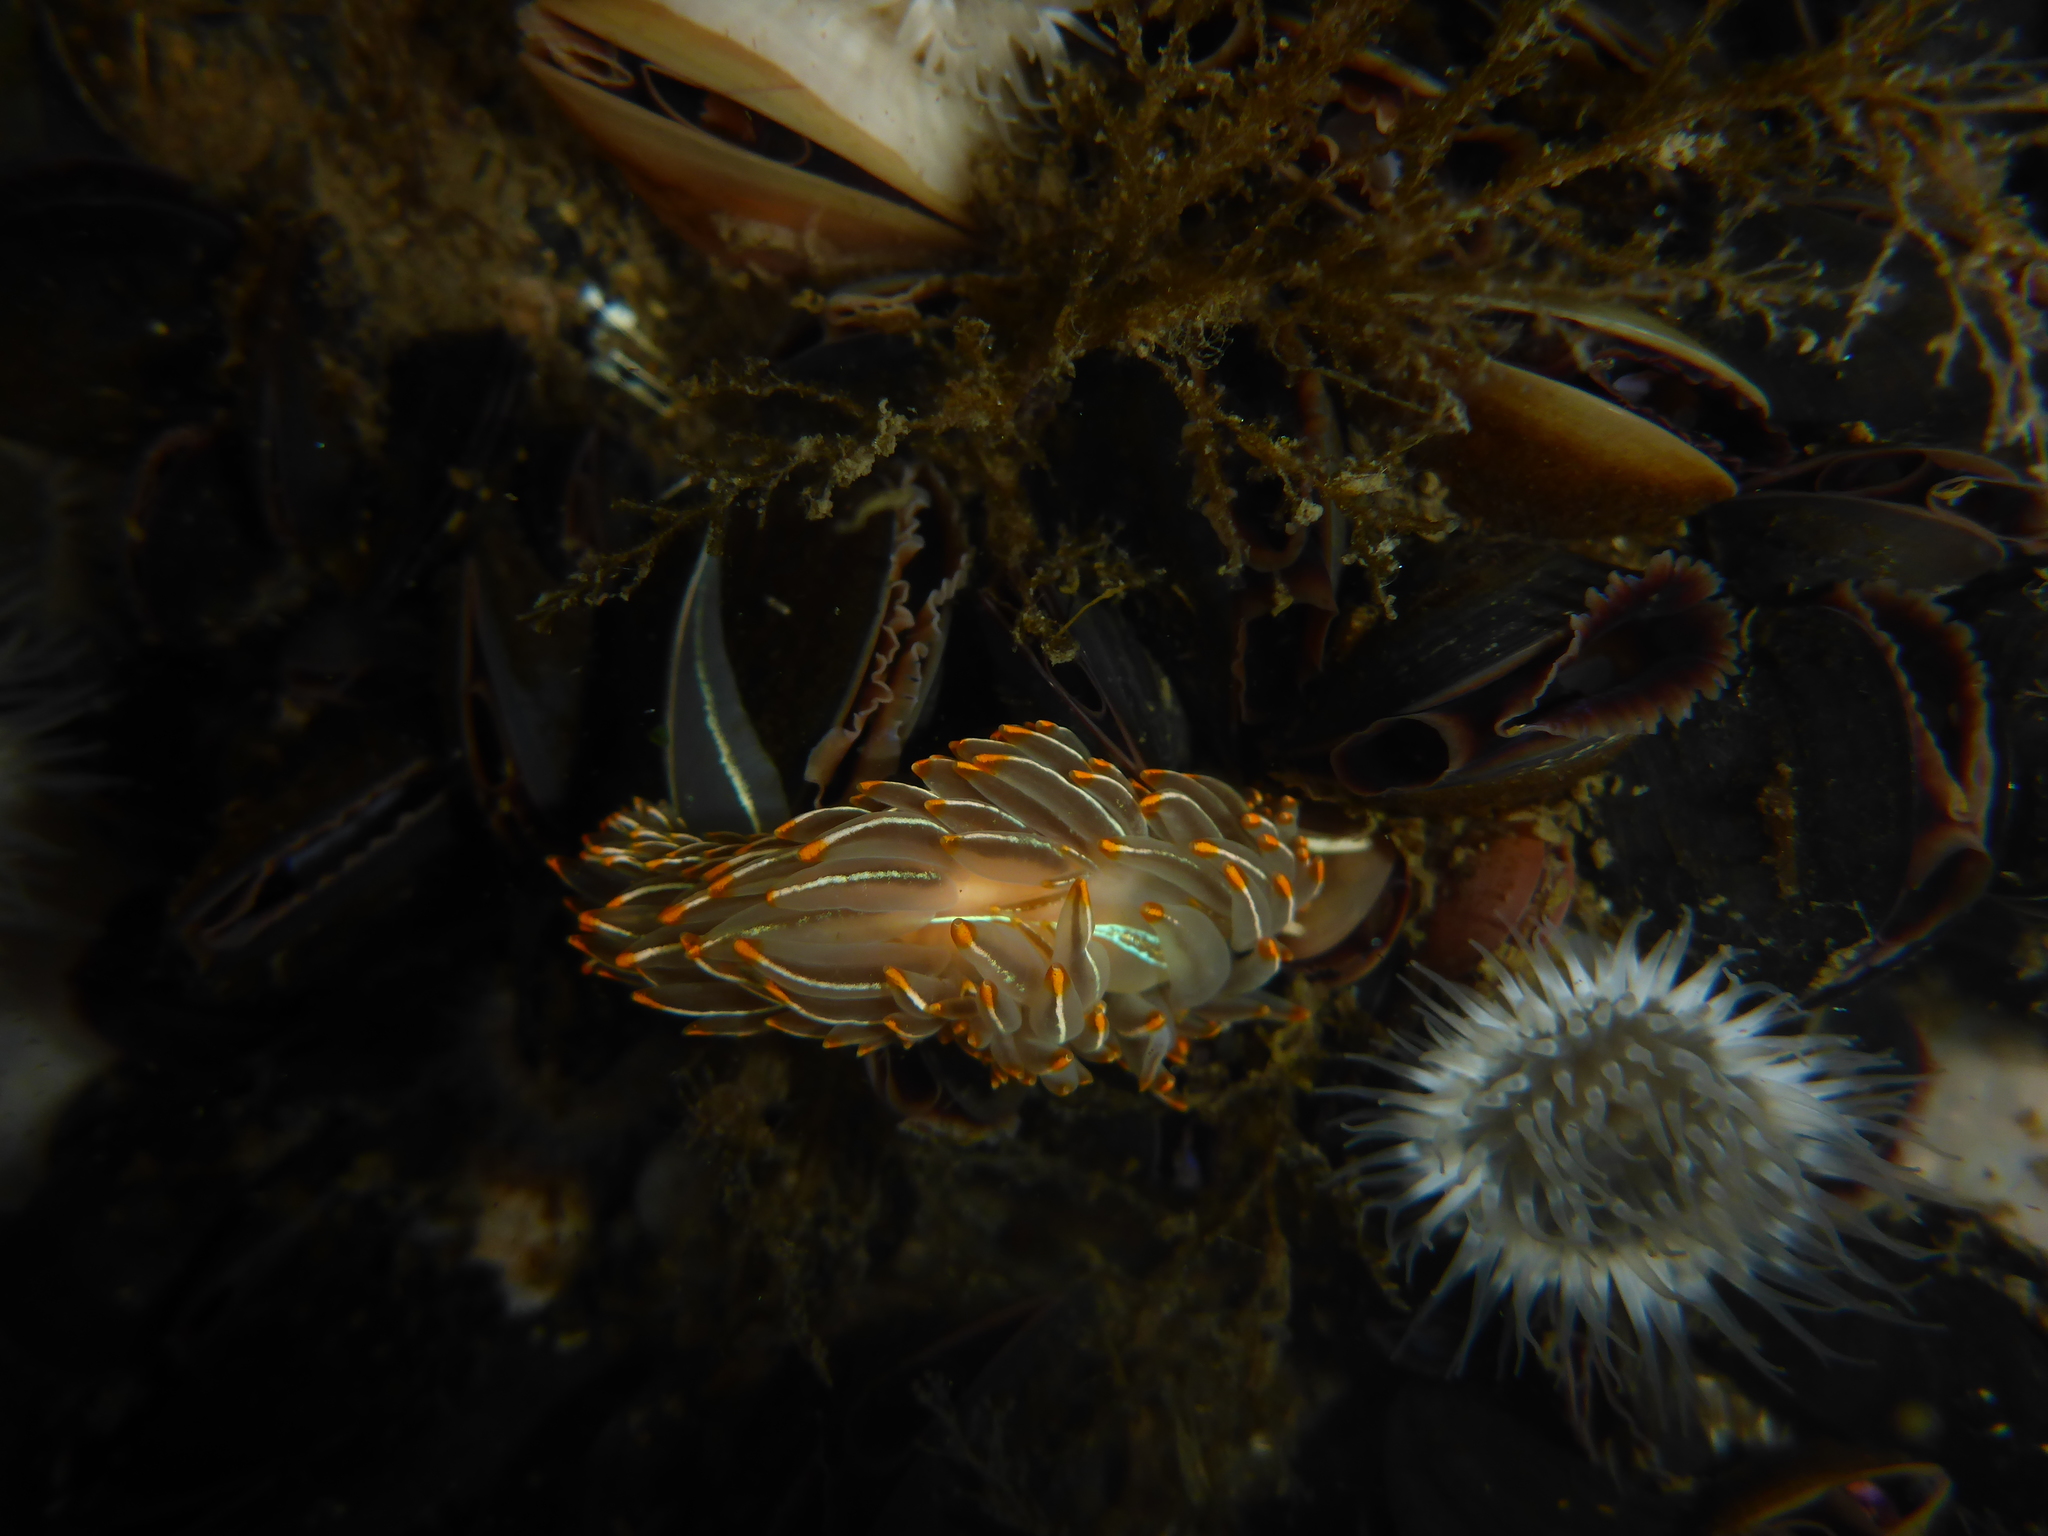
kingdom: Animalia
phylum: Mollusca
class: Gastropoda
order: Nudibranchia
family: Myrrhinidae
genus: Hermissenda
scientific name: Hermissenda crassicornis
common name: Hermissenda
